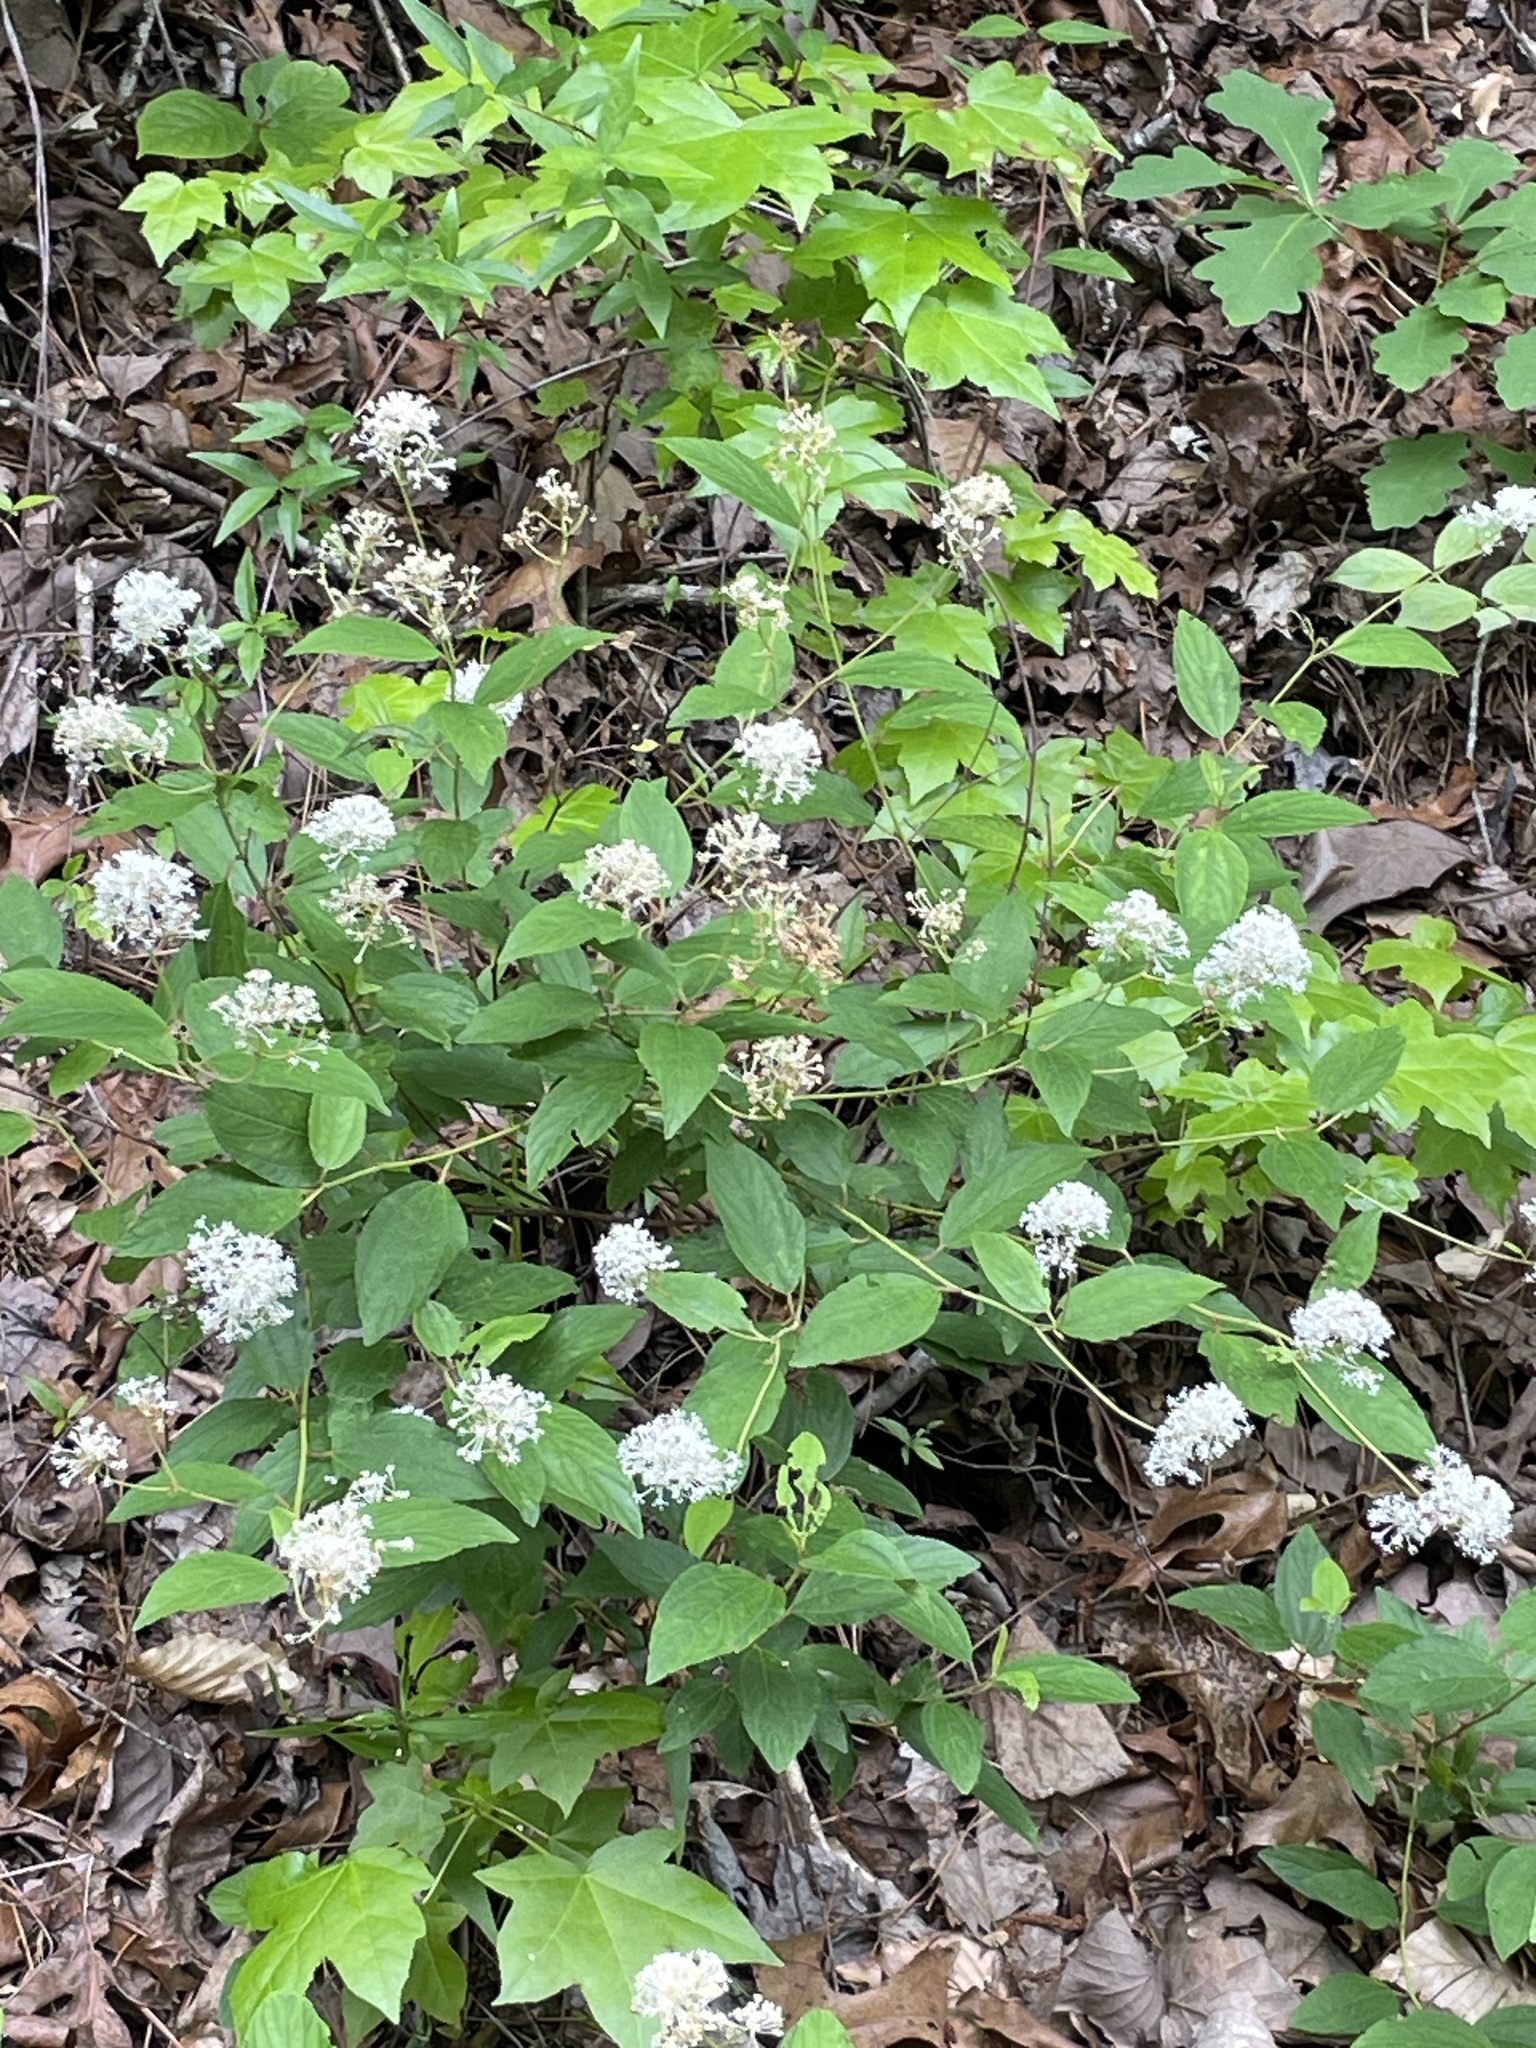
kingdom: Plantae
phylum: Tracheophyta
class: Magnoliopsida
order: Rosales
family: Rhamnaceae
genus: Ceanothus
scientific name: Ceanothus americanus
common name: Redroot
